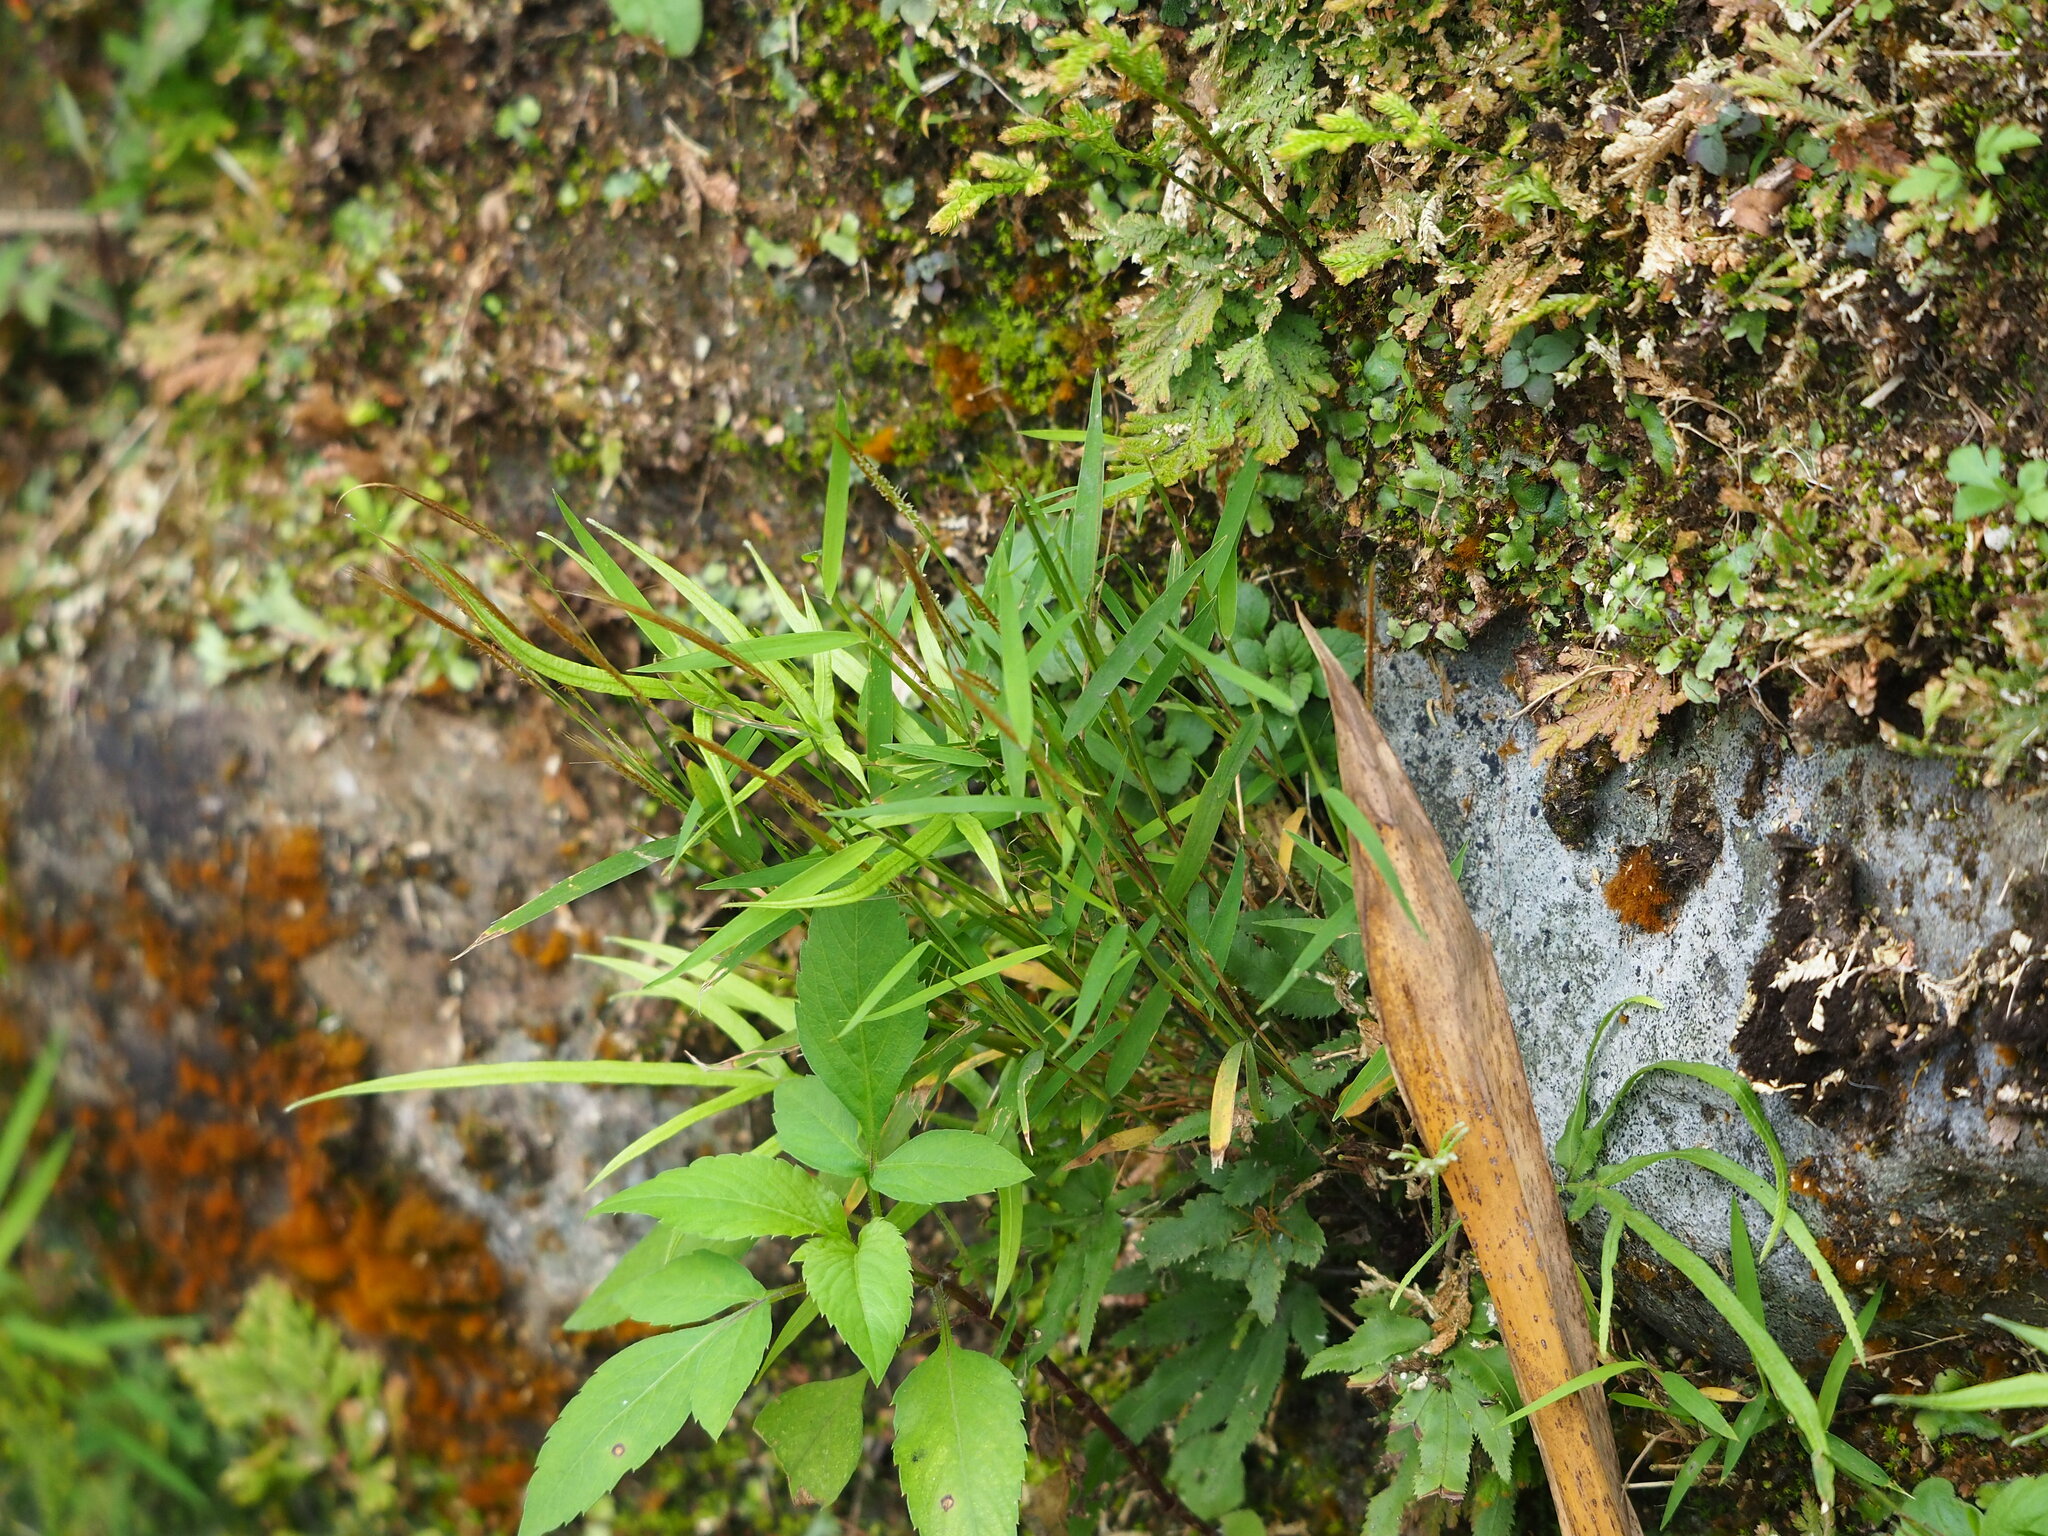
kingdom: Plantae
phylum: Tracheophyta
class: Liliopsida
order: Poales
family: Poaceae
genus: Pogonatherum
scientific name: Pogonatherum crinitum
